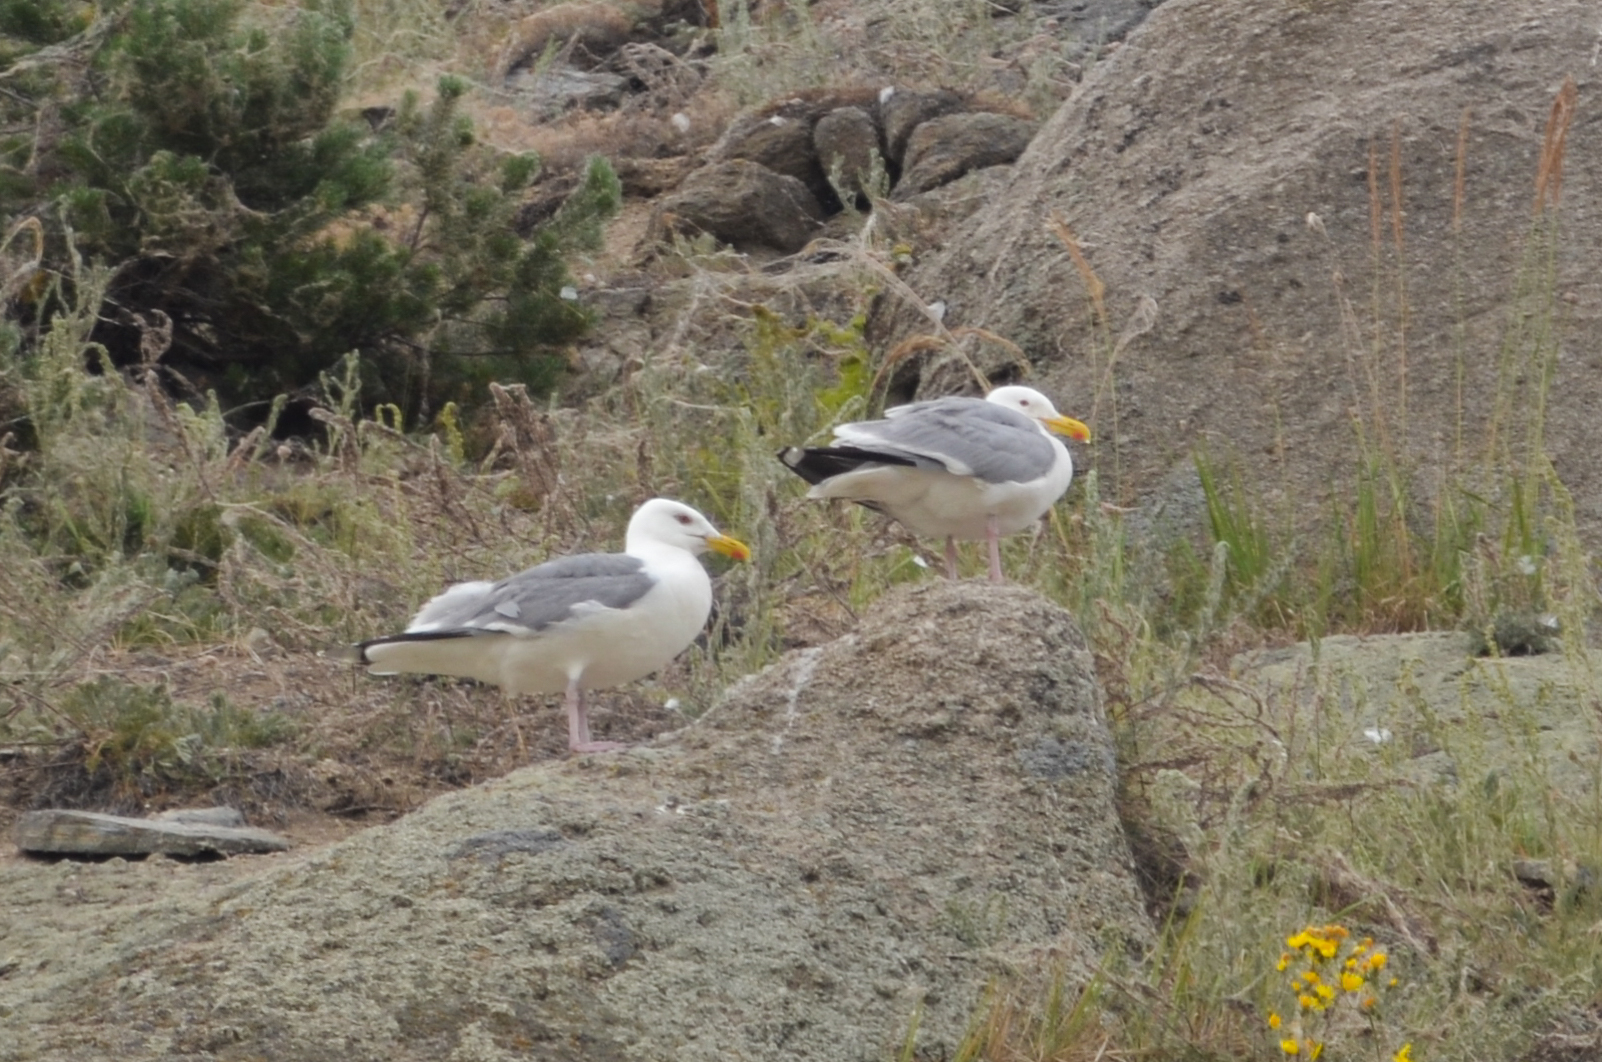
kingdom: Animalia
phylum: Chordata
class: Aves
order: Charadriiformes
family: Laridae
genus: Larus
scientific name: Larus argentatus
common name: Herring gull
